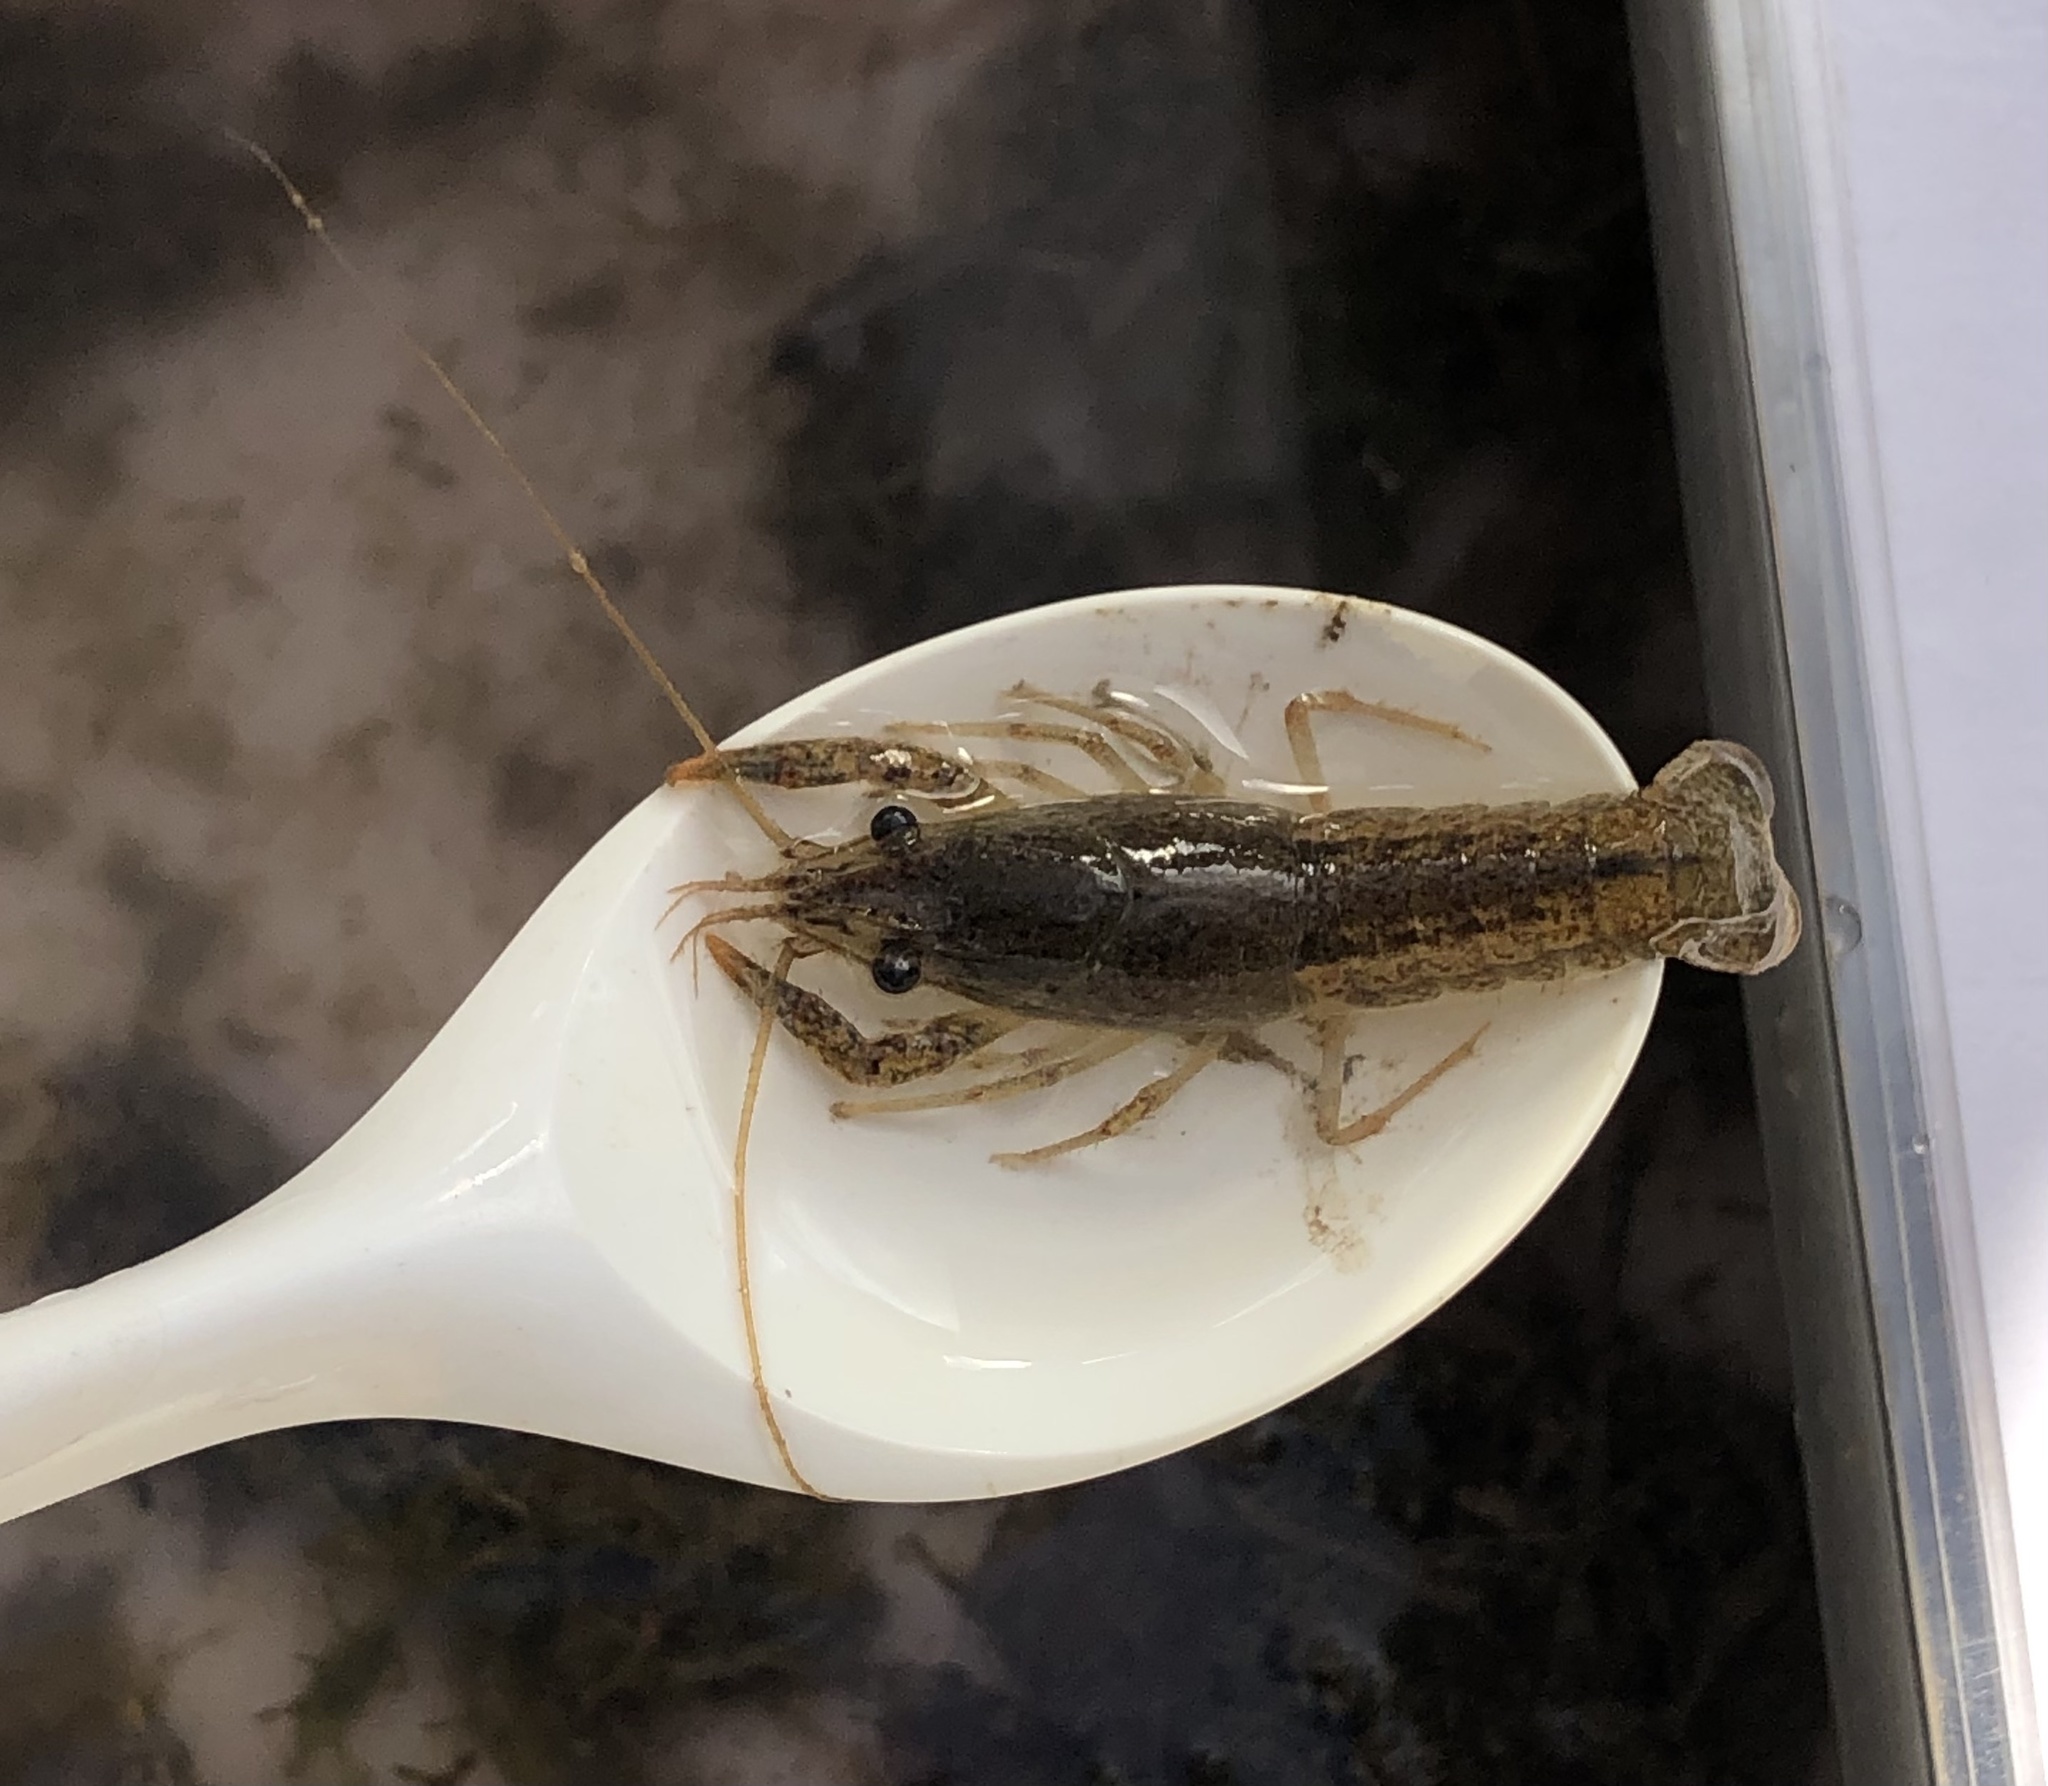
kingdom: Animalia
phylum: Arthropoda
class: Malacostraca
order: Decapoda
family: Cambaridae
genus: Procambarus
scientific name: Procambarus clarkii
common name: Red swamp crayfish
